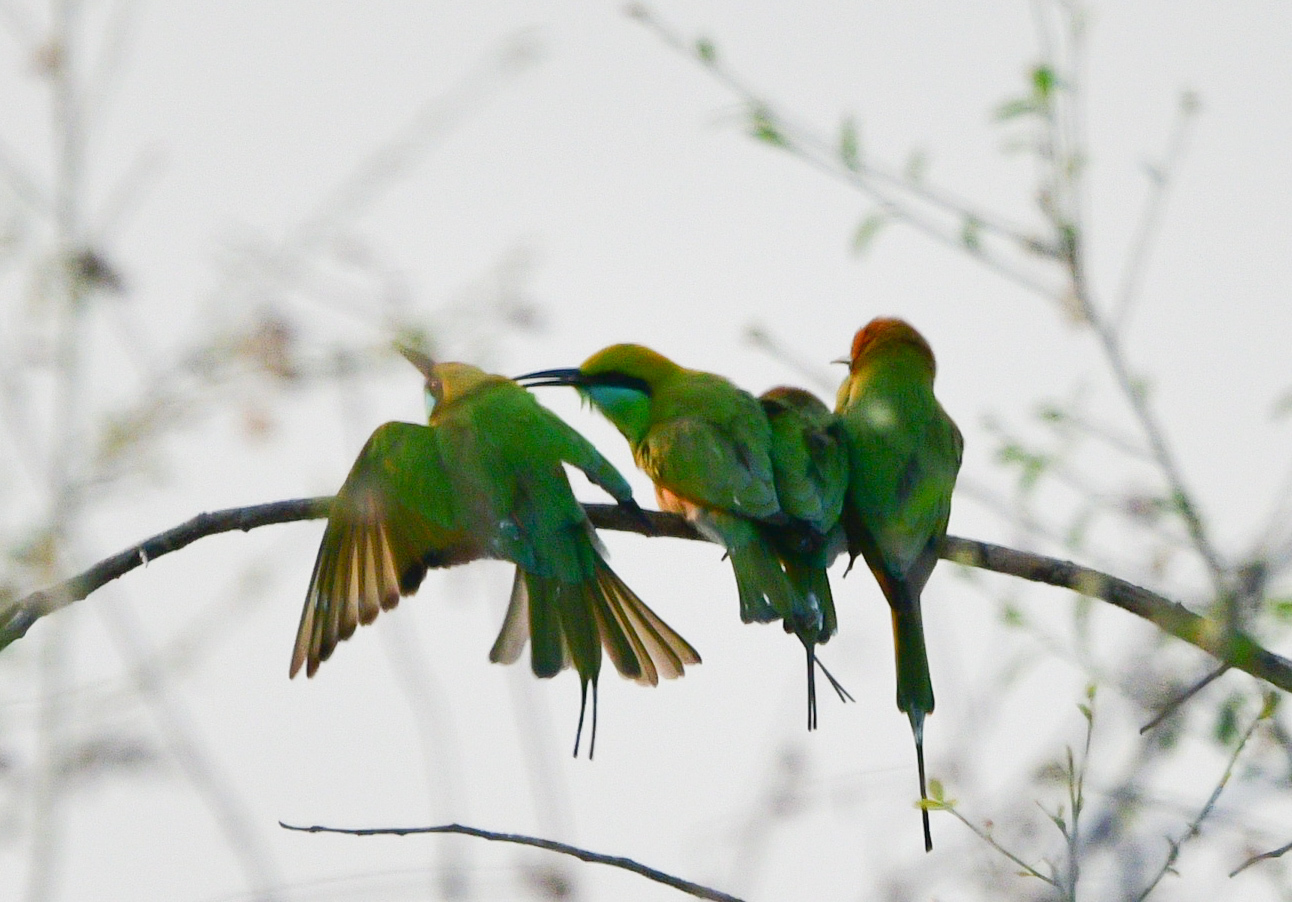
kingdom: Animalia
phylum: Chordata
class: Aves
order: Coraciiformes
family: Meropidae
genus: Merops
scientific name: Merops orientalis
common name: Green bee-eater
